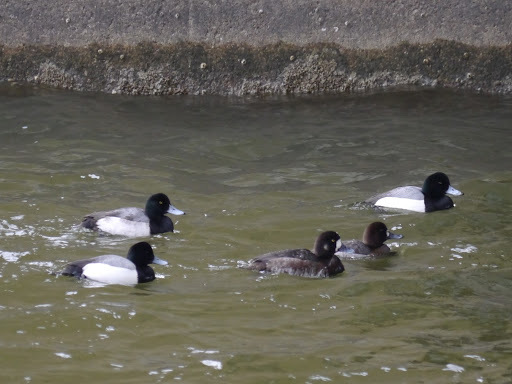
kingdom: Animalia
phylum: Chordata
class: Aves
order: Anseriformes
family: Anatidae
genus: Aythya
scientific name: Aythya marila
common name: Greater scaup
